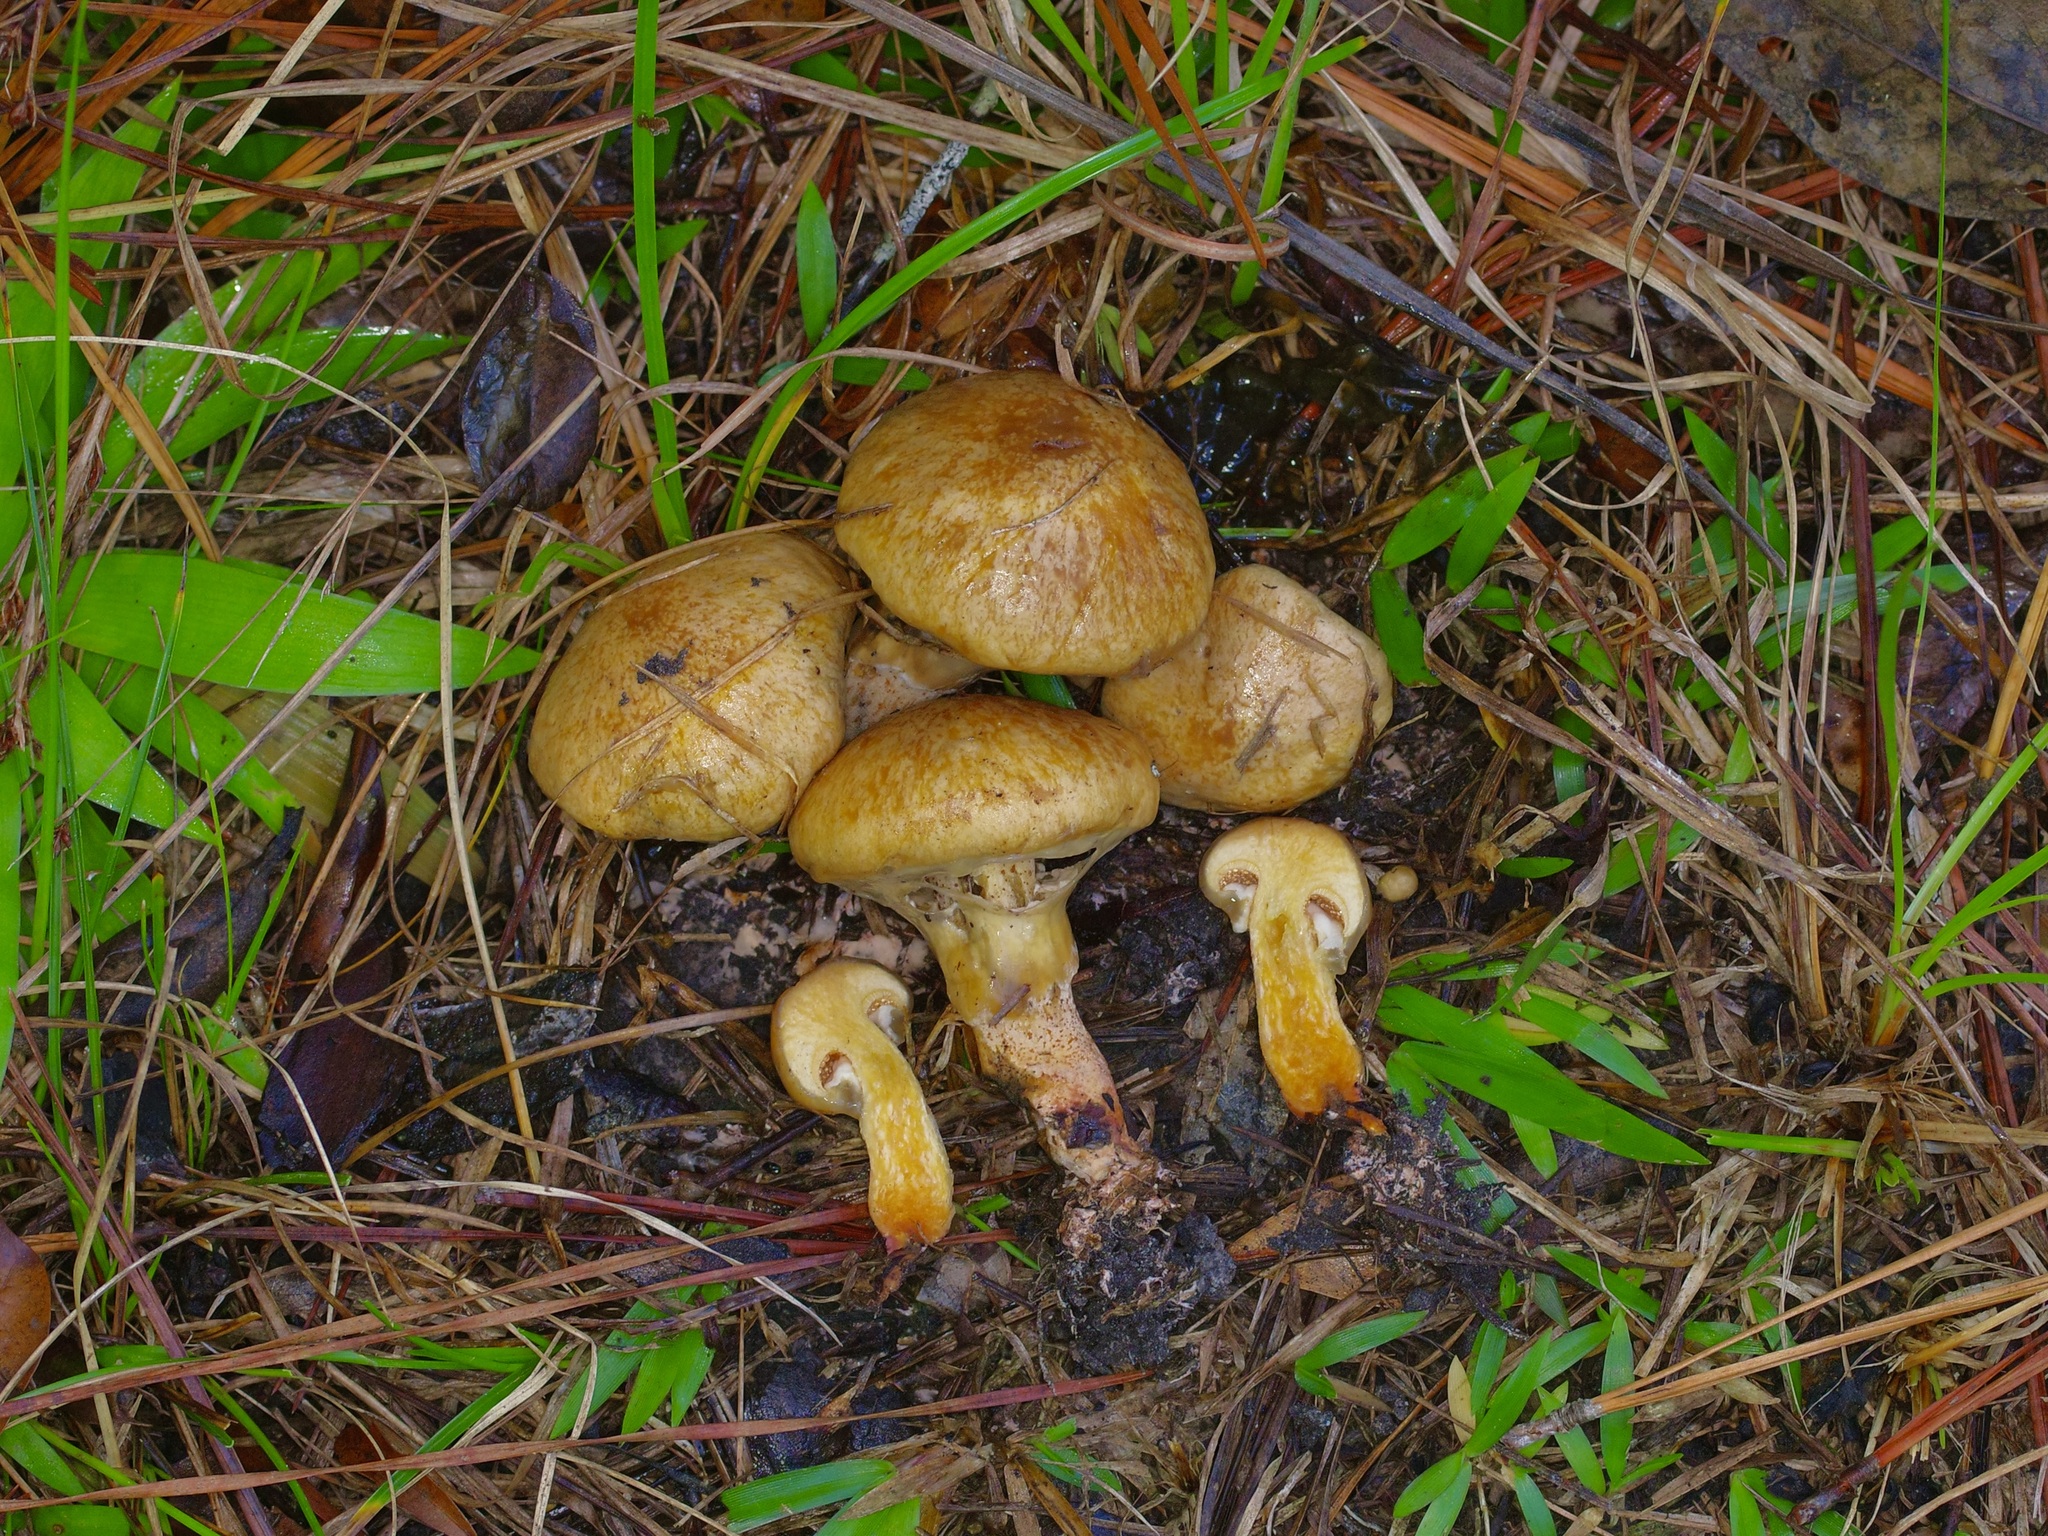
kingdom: Fungi
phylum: Basidiomycota
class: Agaricomycetes
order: Boletales
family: Suillaceae
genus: Suillus
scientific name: Suillus decipiens
